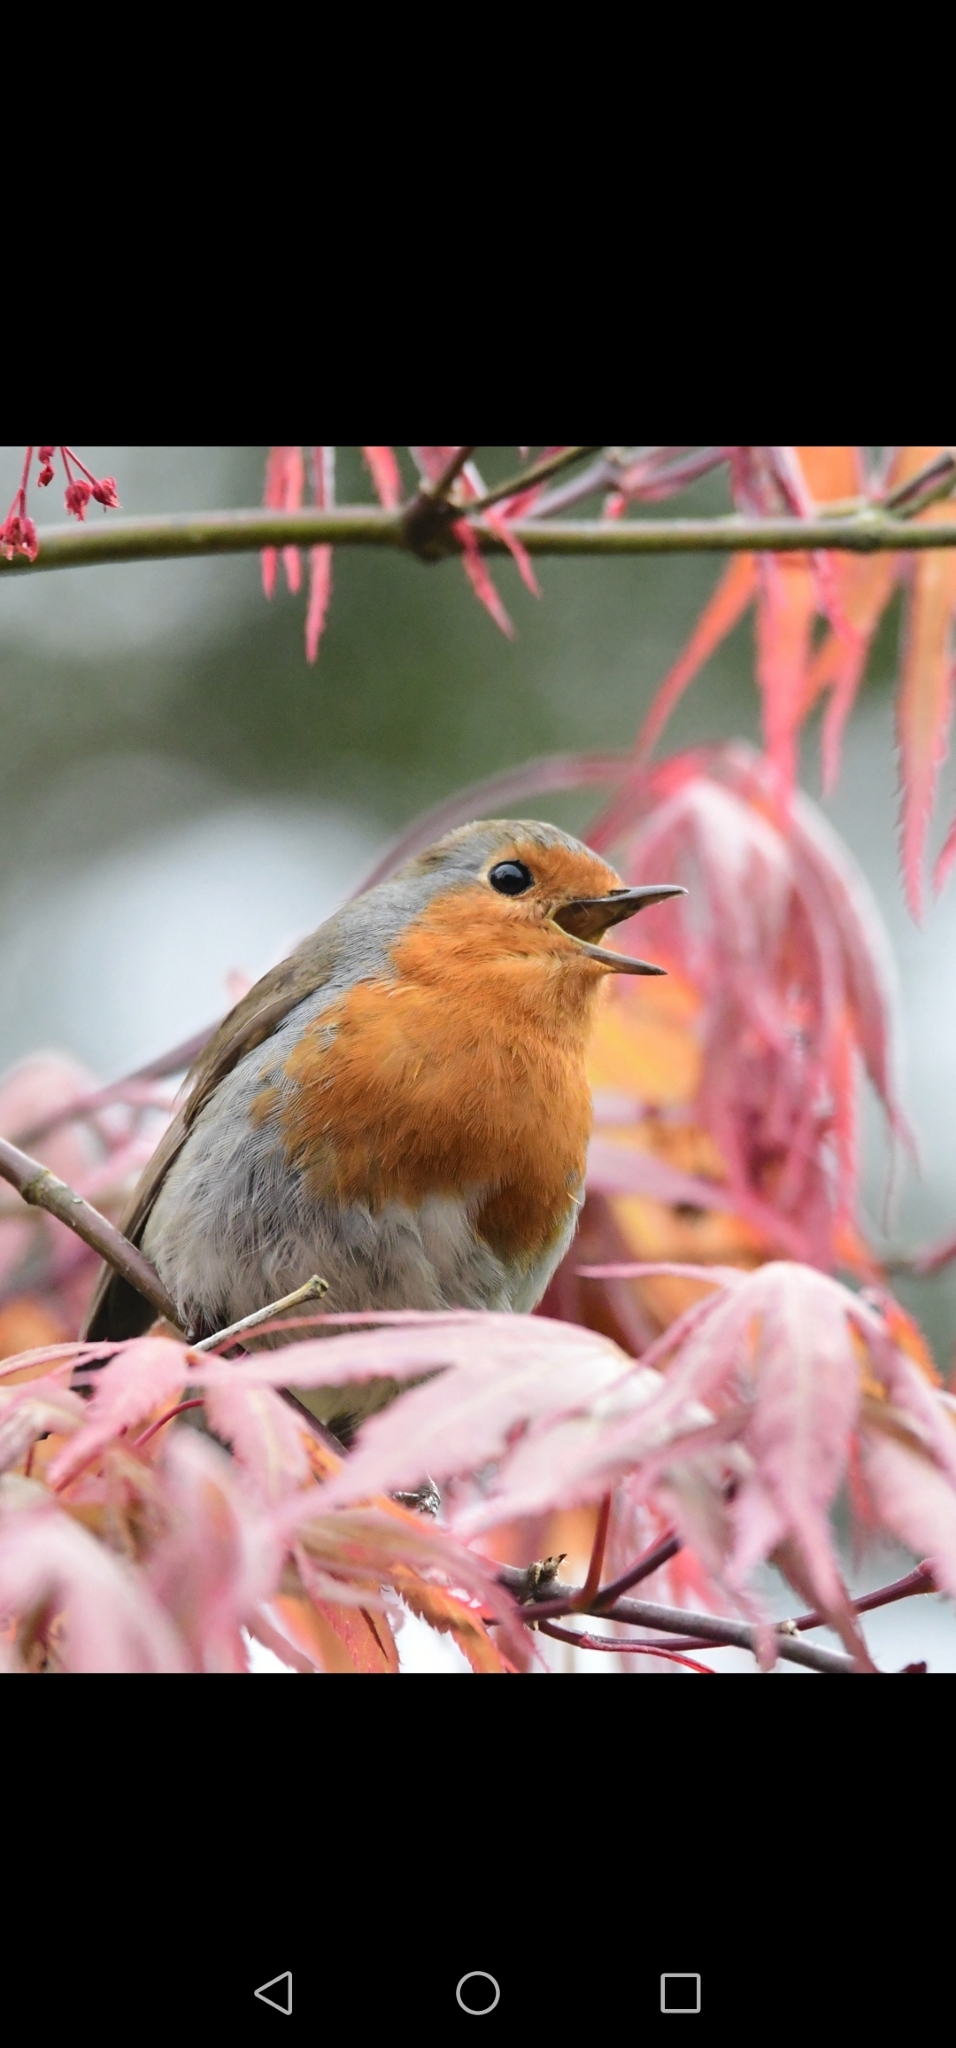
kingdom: Animalia
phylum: Chordata
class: Aves
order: Passeriformes
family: Muscicapidae
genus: Erithacus
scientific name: Erithacus rubecula
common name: European robin
